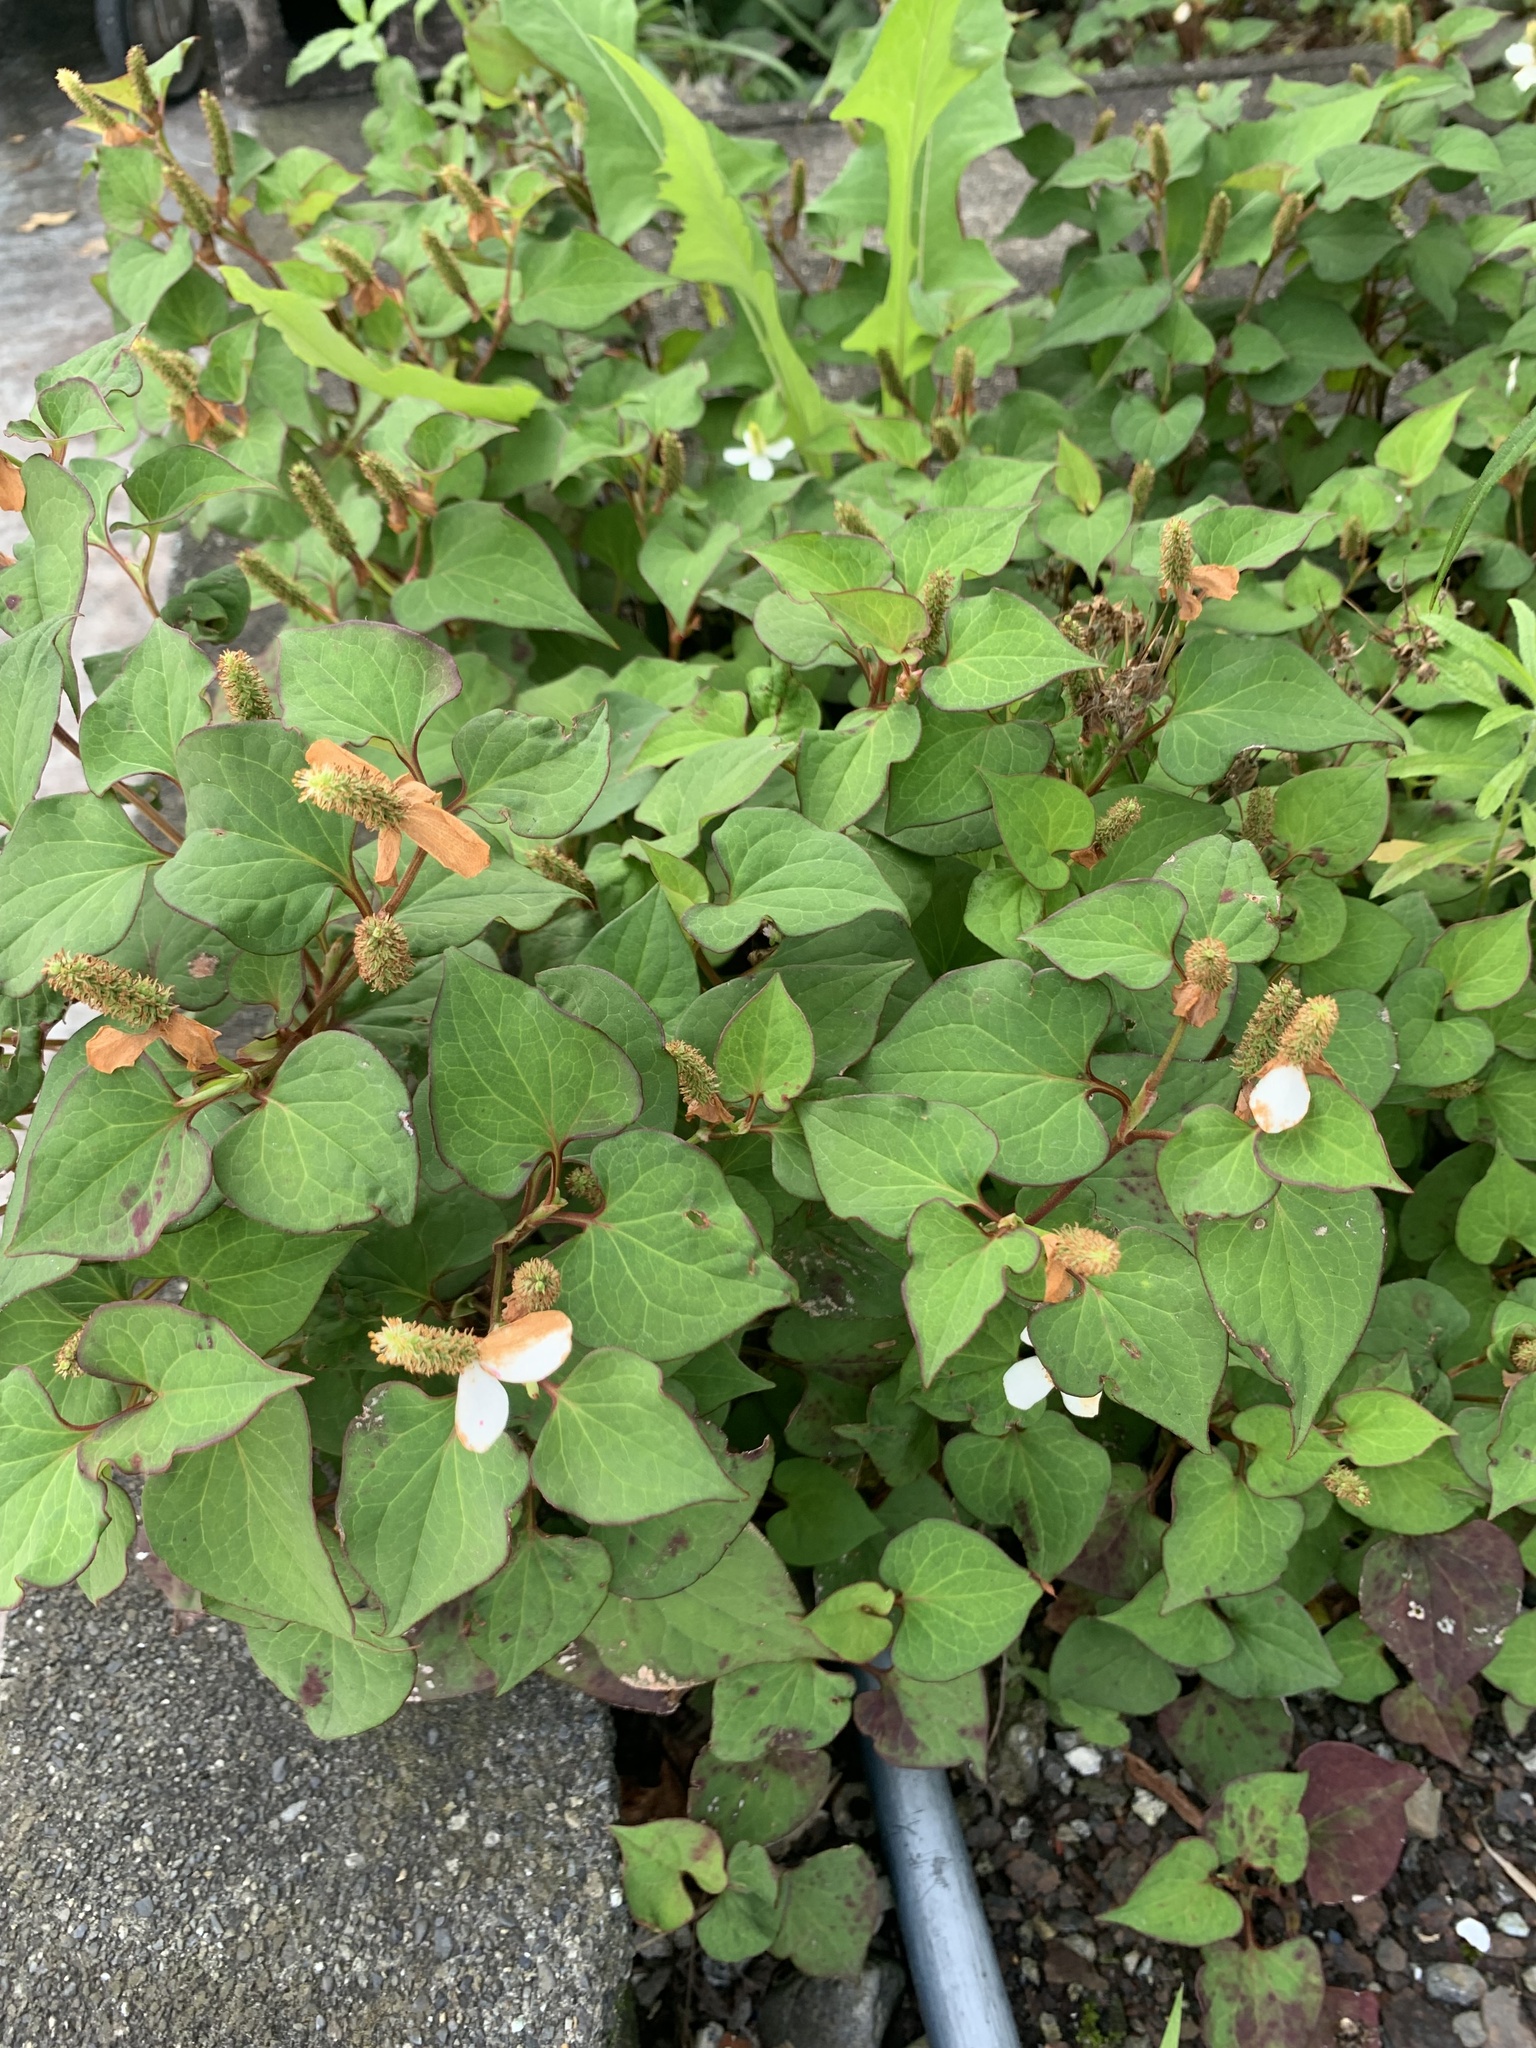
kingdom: Plantae
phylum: Tracheophyta
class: Magnoliopsida
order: Piperales
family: Saururaceae
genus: Houttuynia
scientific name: Houttuynia cordata
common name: Chameleon
